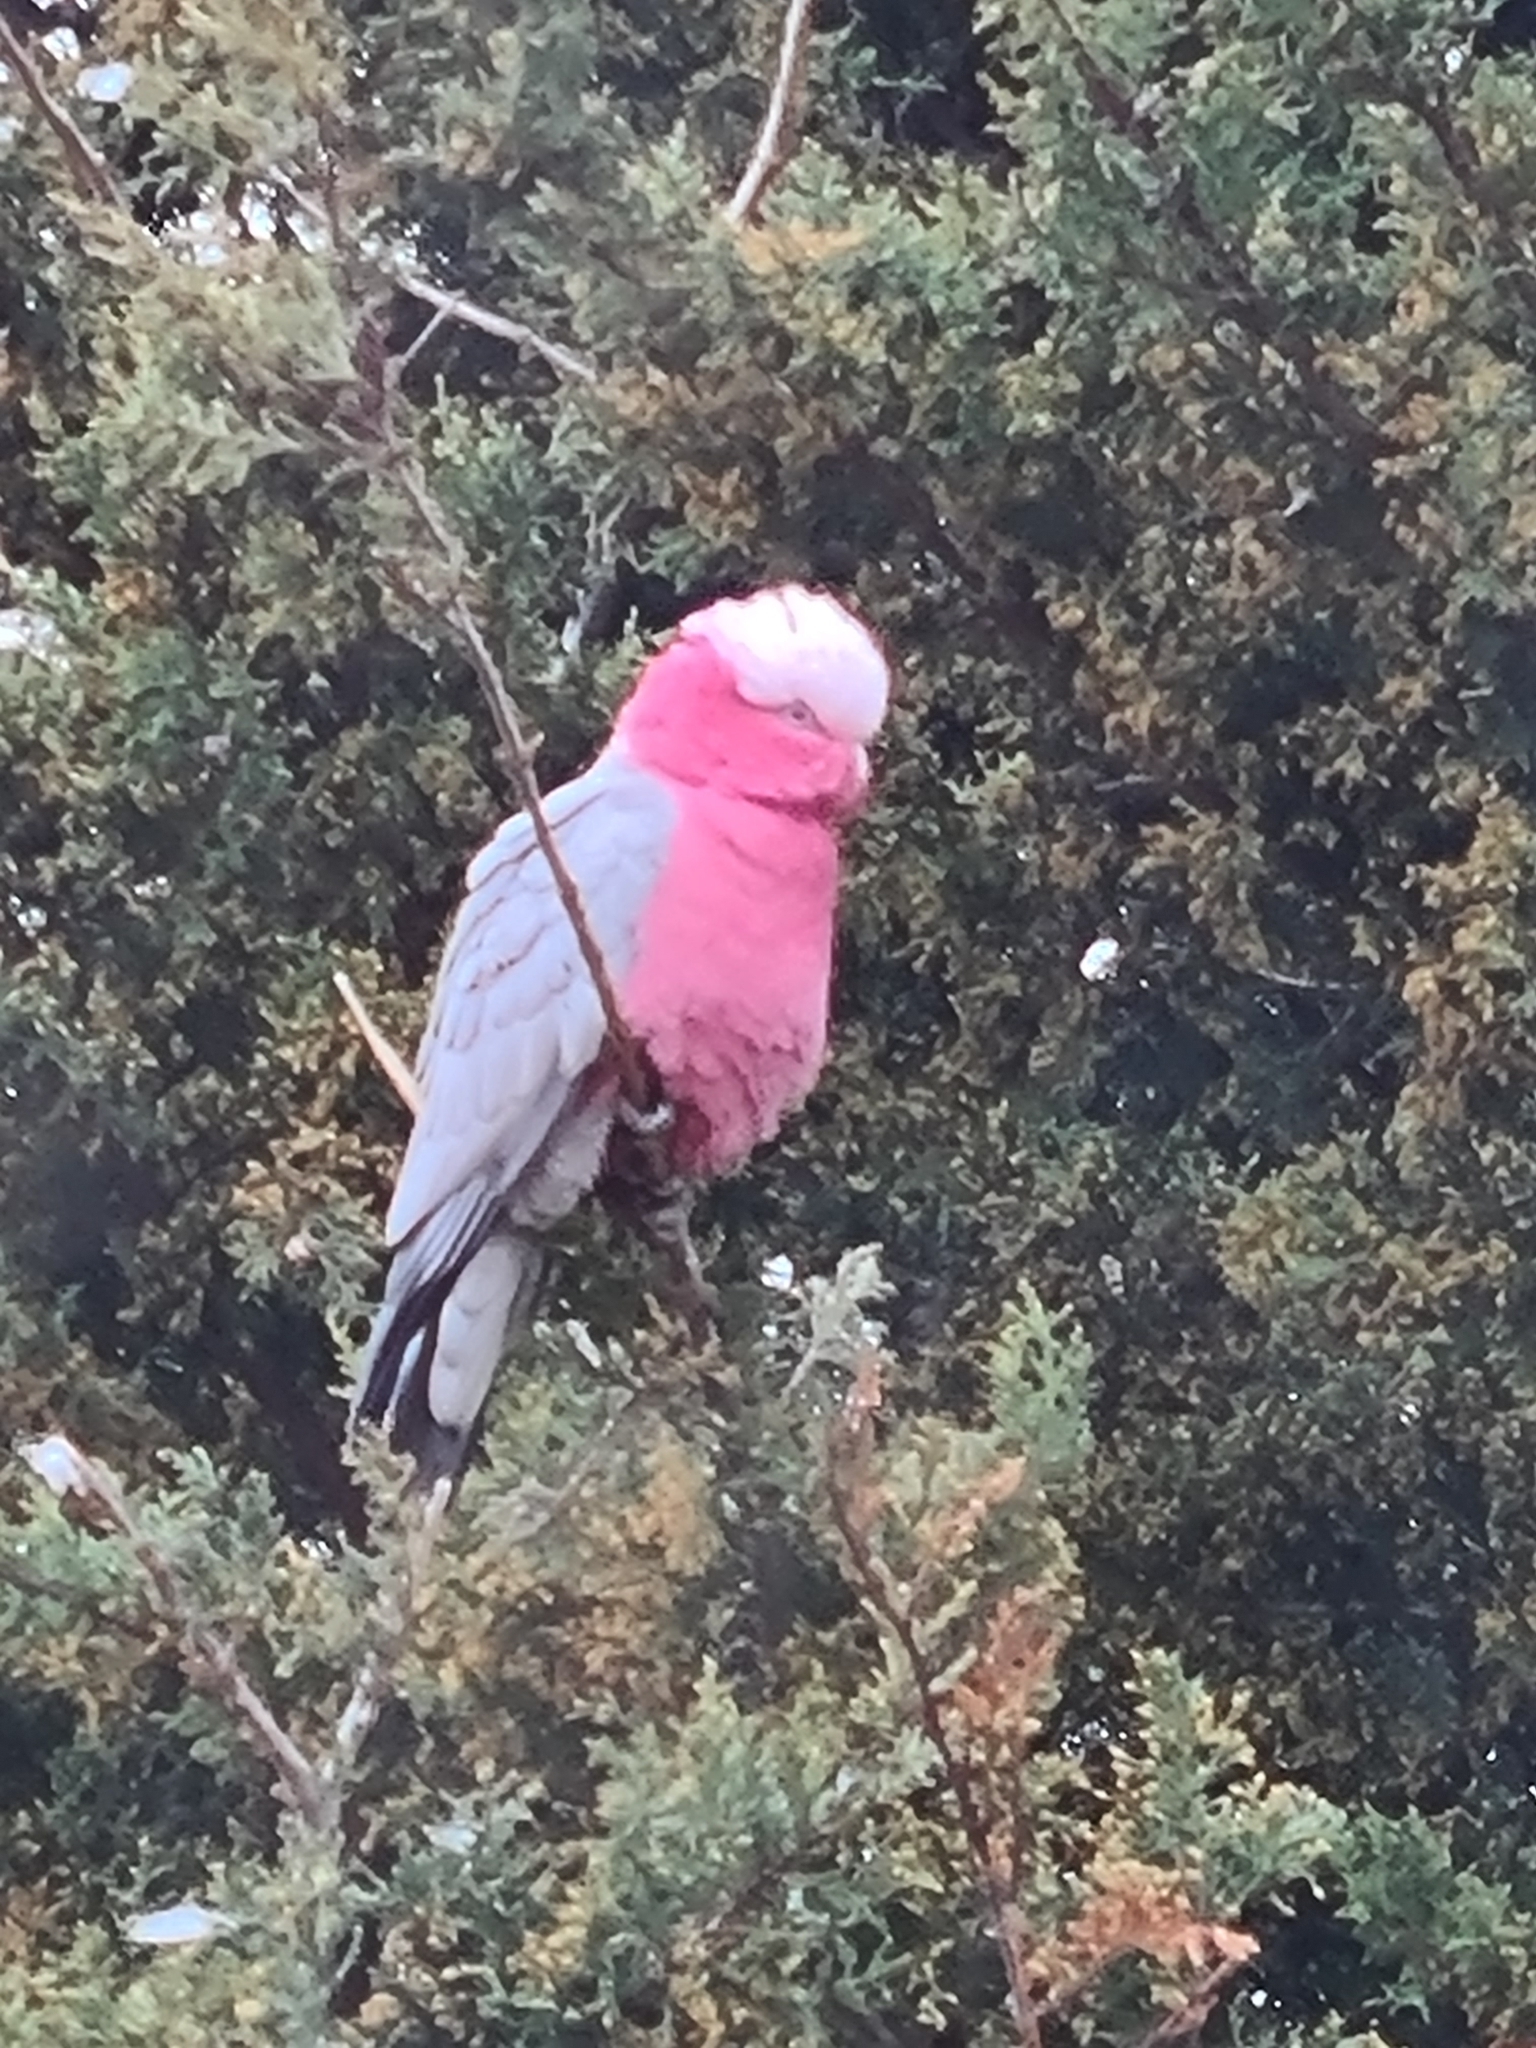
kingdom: Animalia
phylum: Chordata
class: Aves
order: Psittaciformes
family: Psittacidae
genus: Eolophus
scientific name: Eolophus roseicapilla
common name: Galah
